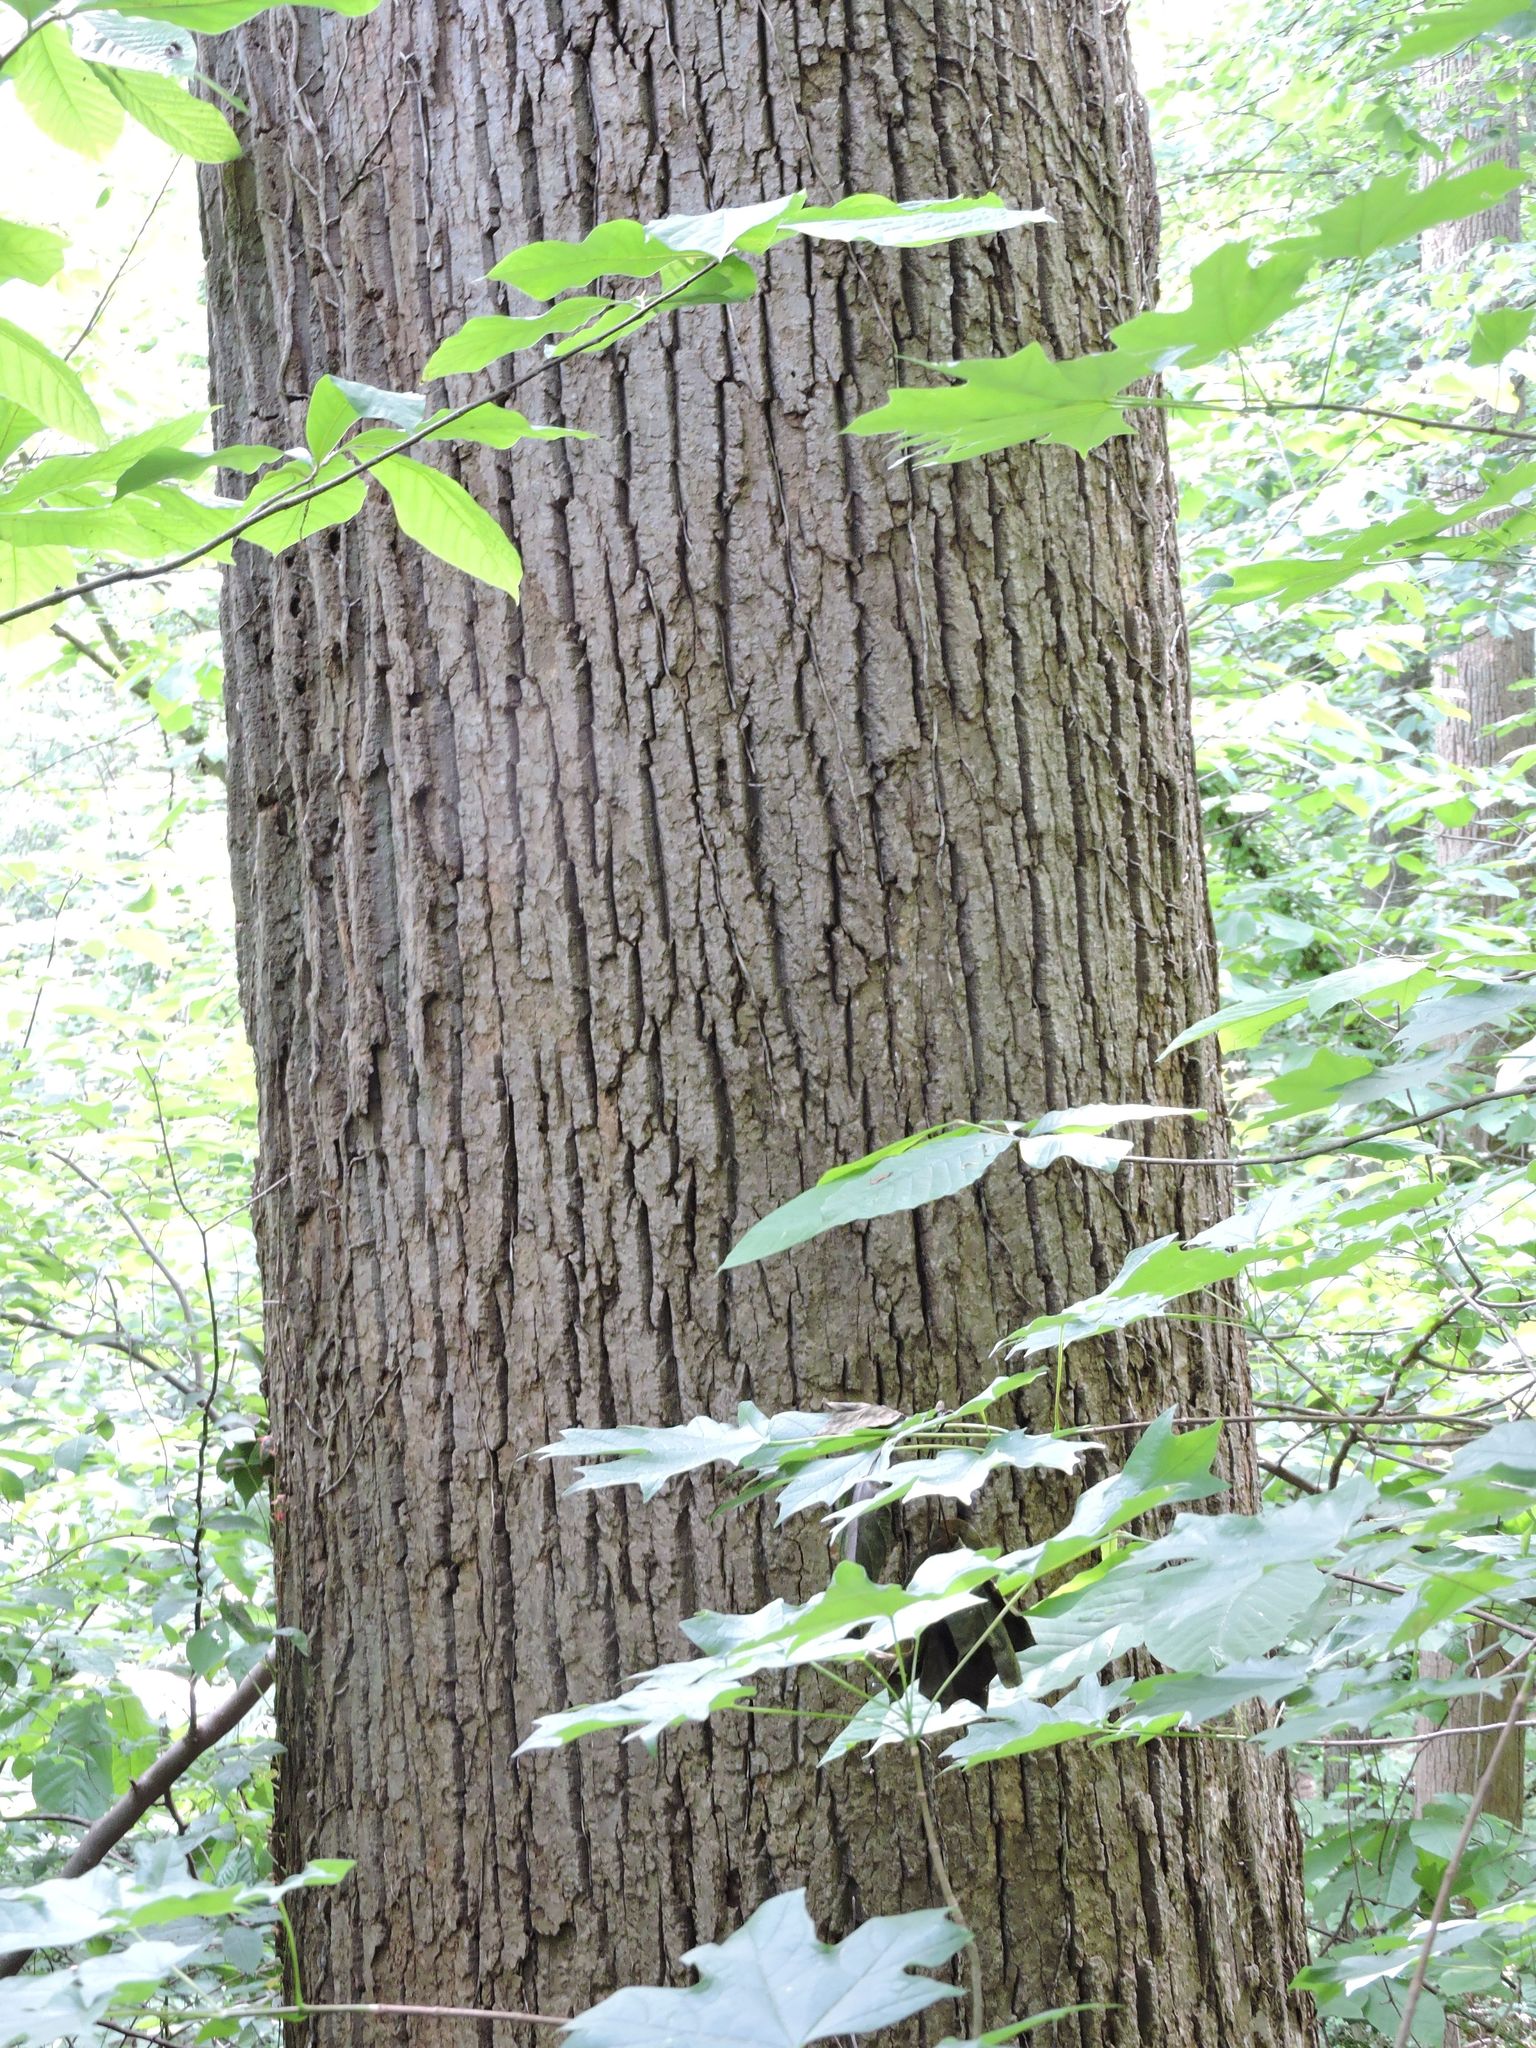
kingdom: Plantae
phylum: Tracheophyta
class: Magnoliopsida
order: Magnoliales
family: Magnoliaceae
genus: Liriodendron
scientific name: Liriodendron tulipifera
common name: Tulip tree
